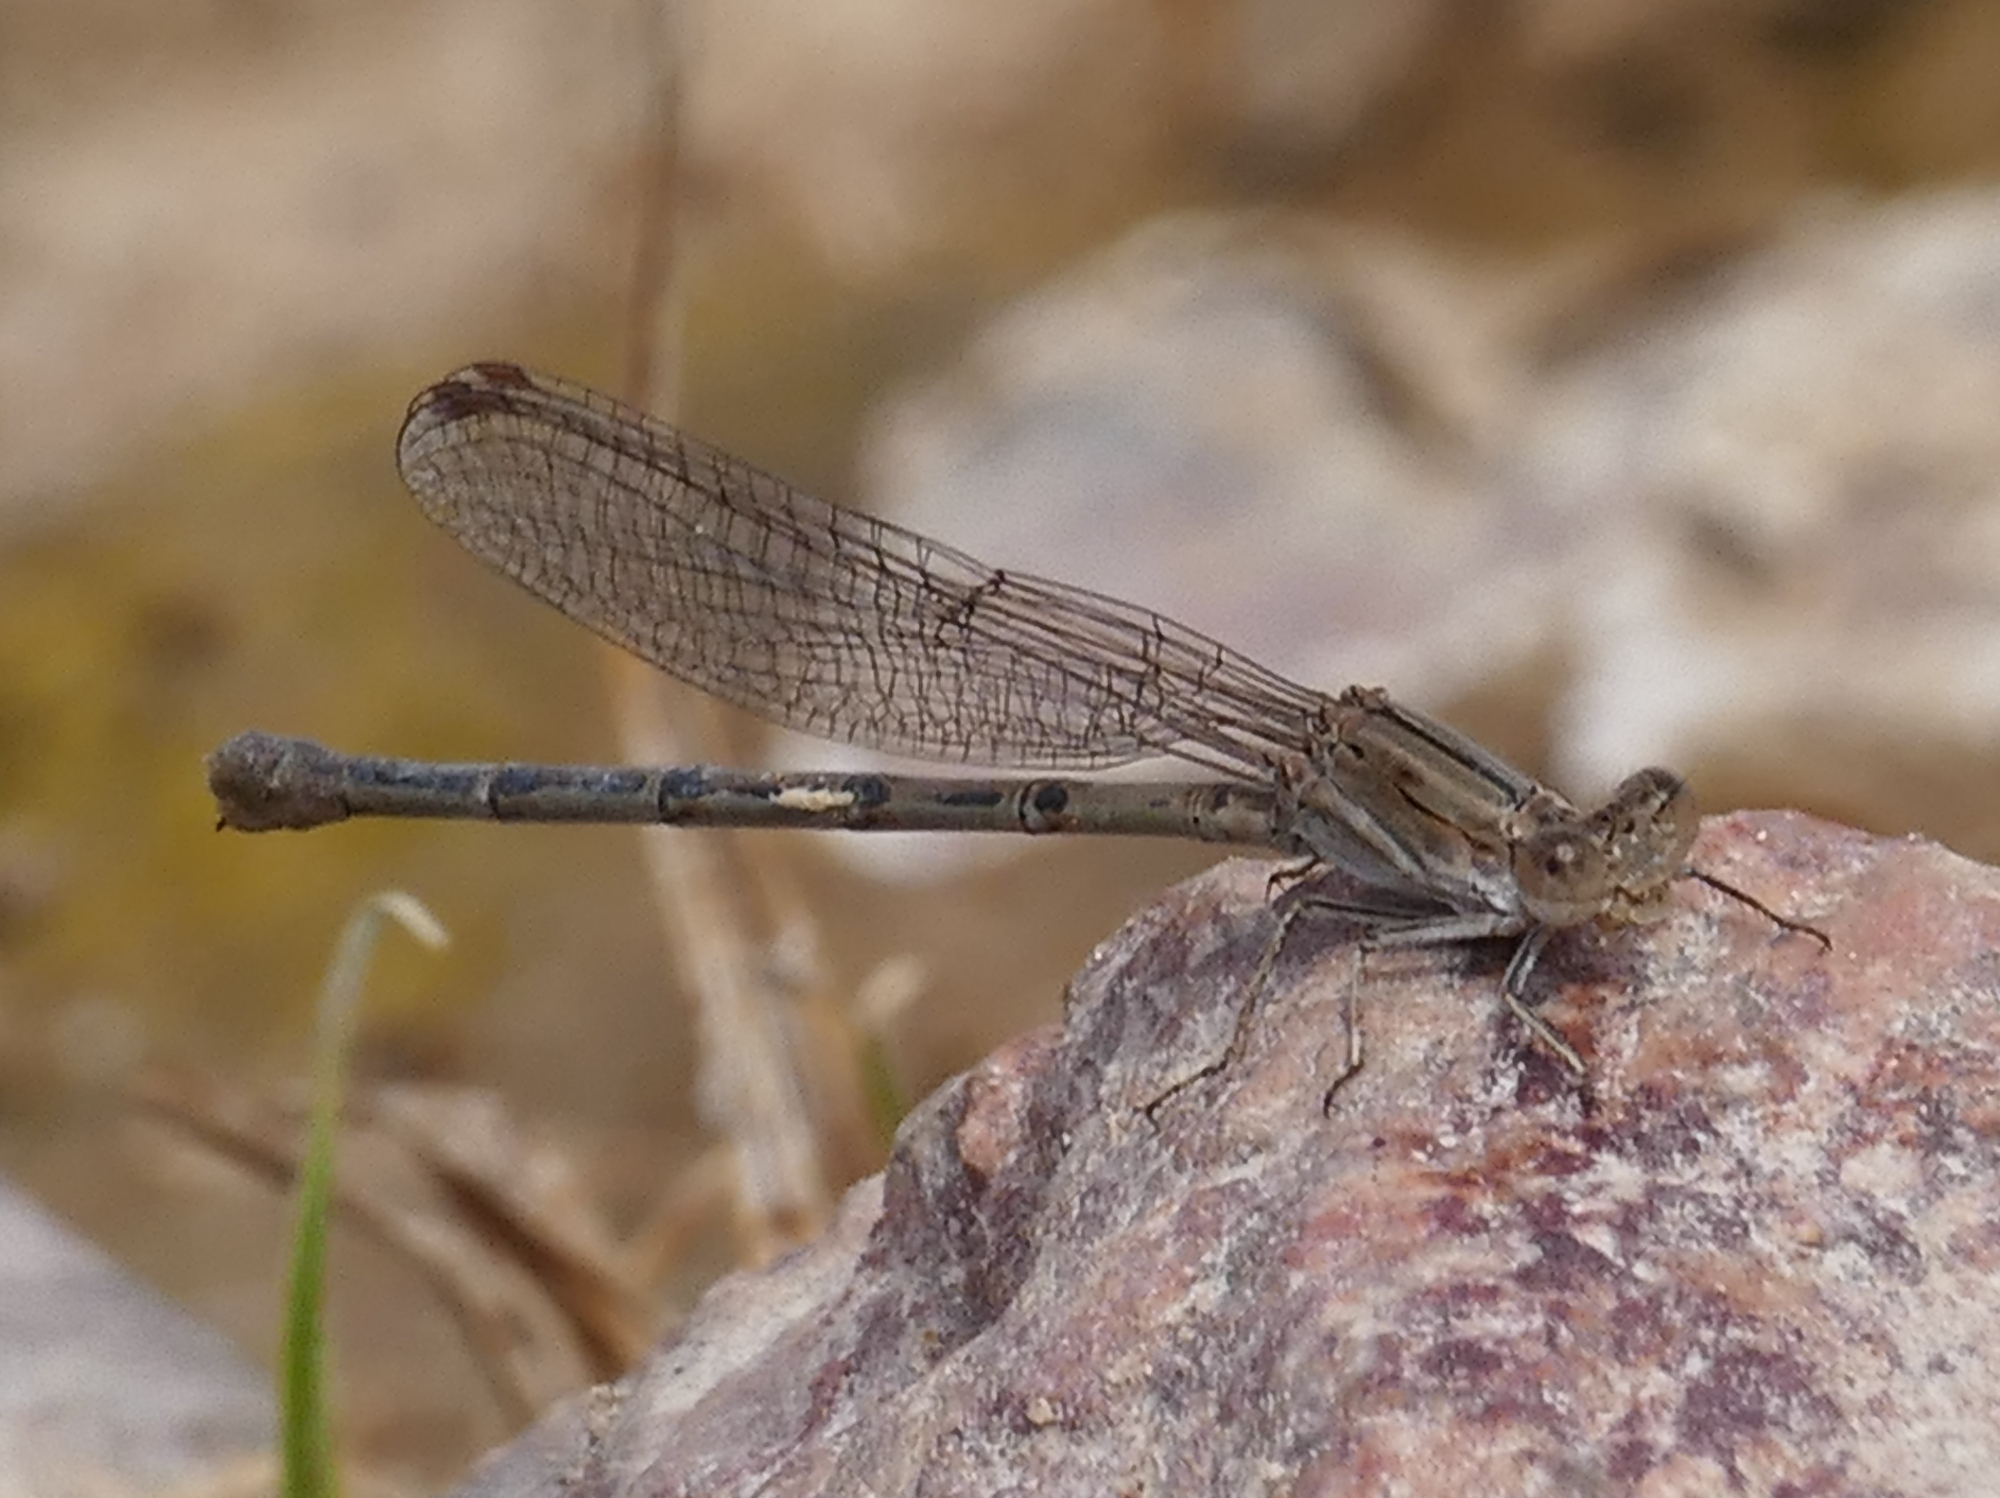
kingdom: Animalia
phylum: Arthropoda
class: Insecta
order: Odonata
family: Coenagrionidae
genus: Argia
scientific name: Argia pallens
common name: Amethyst dancer
